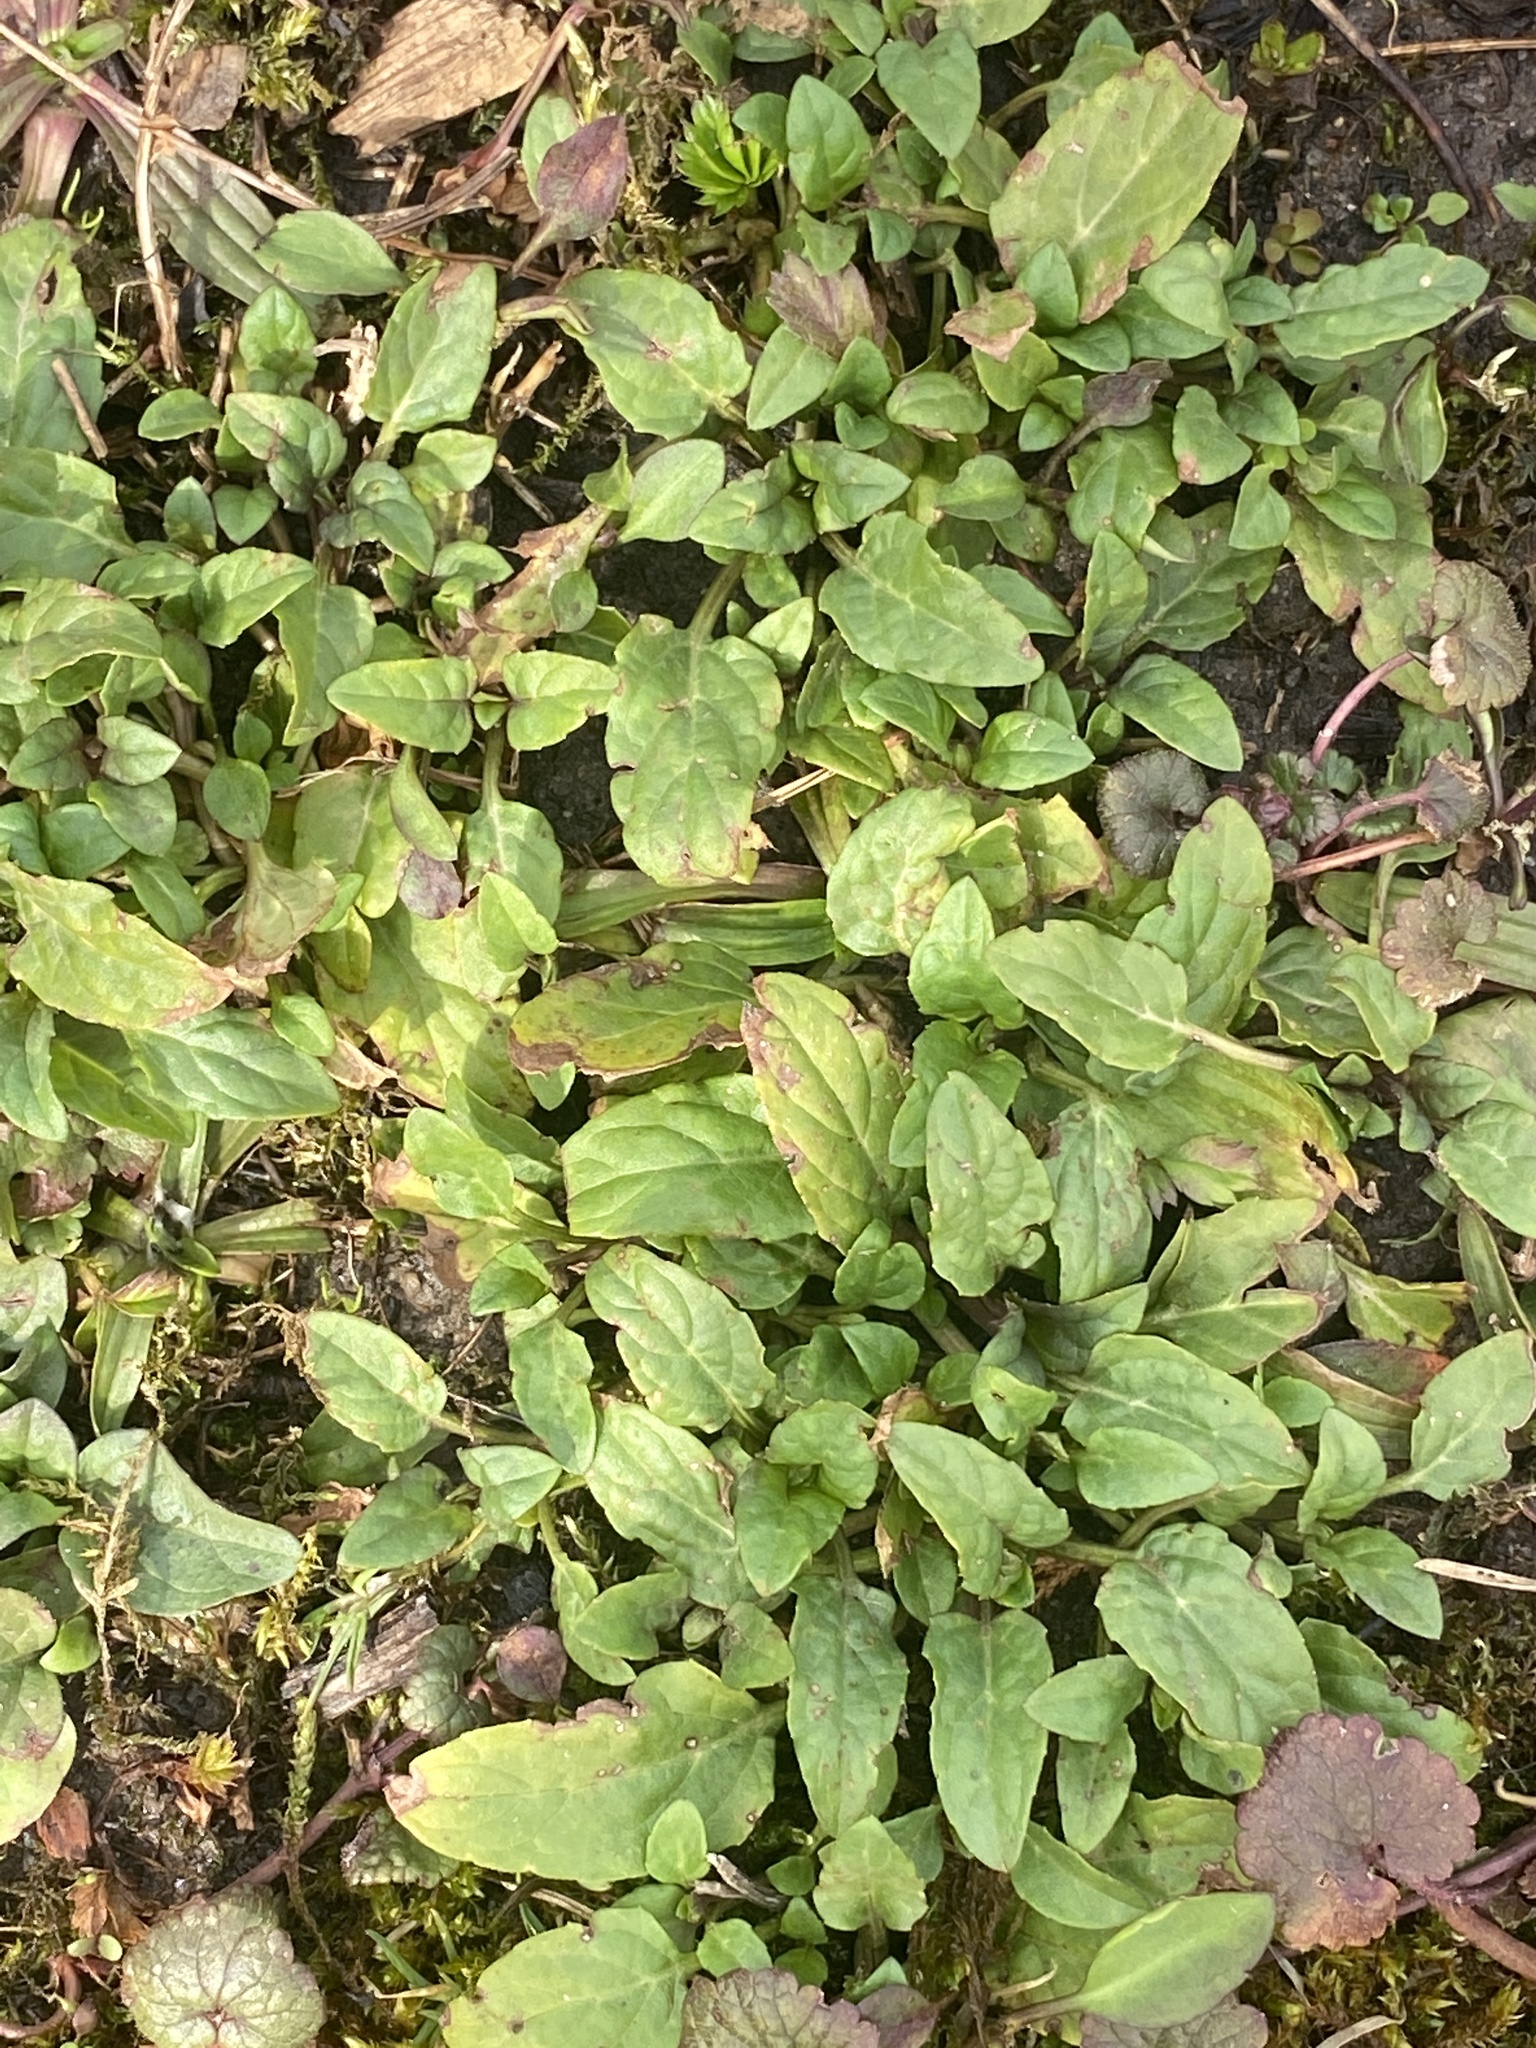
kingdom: Plantae
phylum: Tracheophyta
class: Magnoliopsida
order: Lamiales
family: Lamiaceae
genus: Prunella
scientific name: Prunella vulgaris
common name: Heal-all
